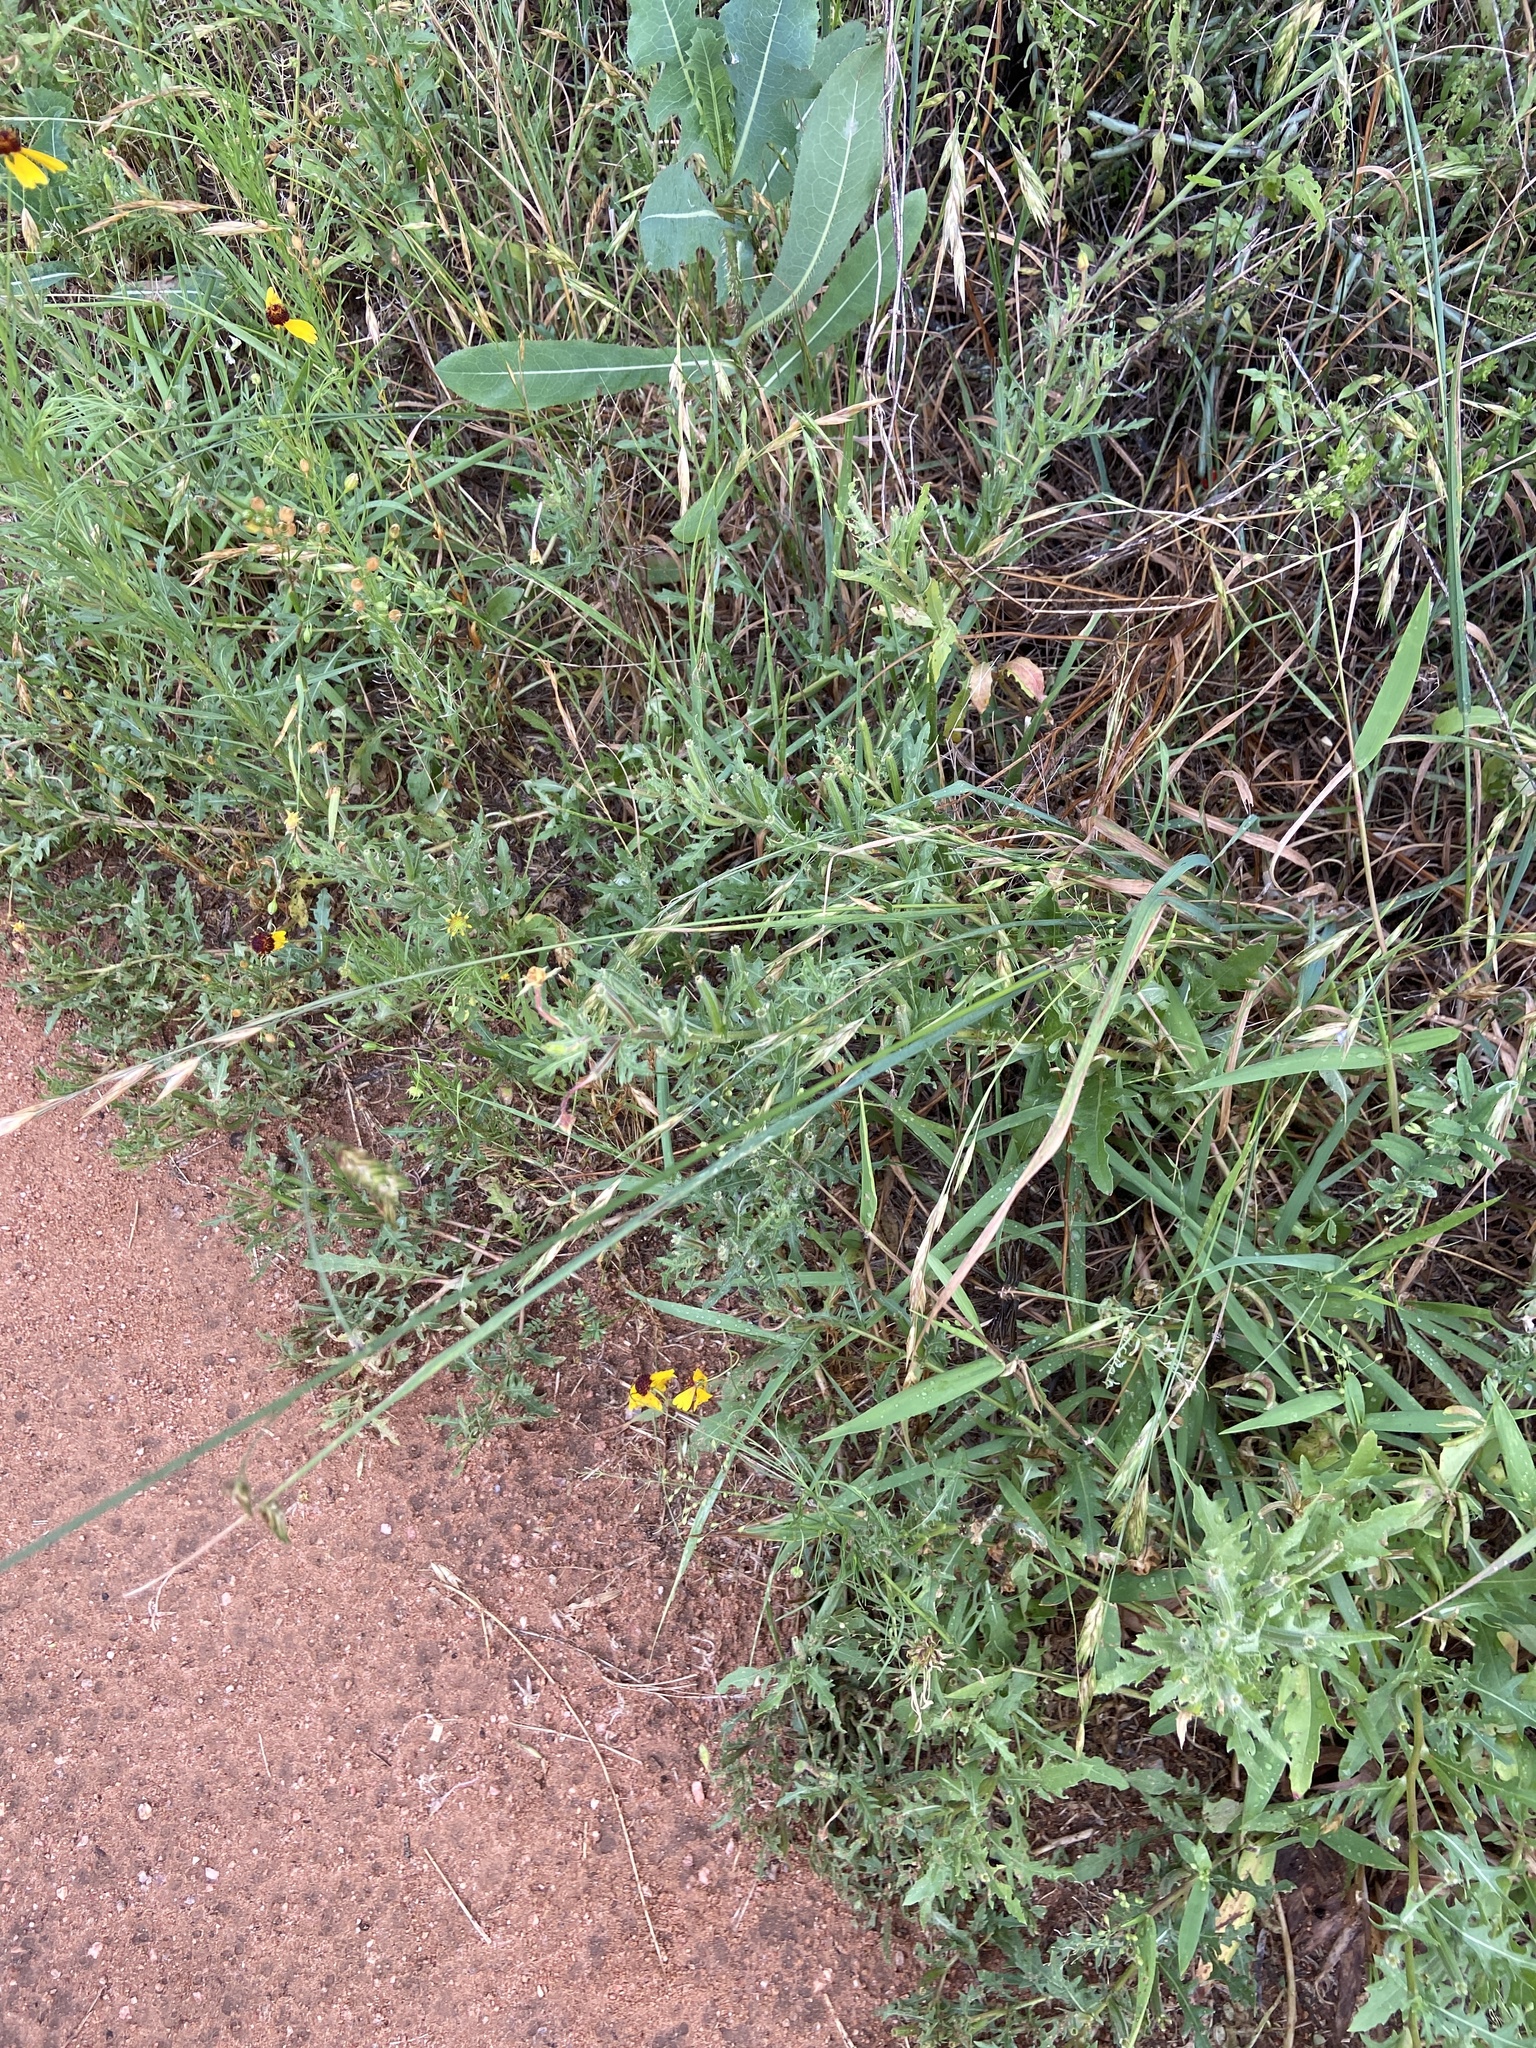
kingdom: Plantae
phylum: Tracheophyta
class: Liliopsida
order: Poales
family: Poaceae
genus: Bromus
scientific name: Bromus catharticus
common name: Rescuegrass
